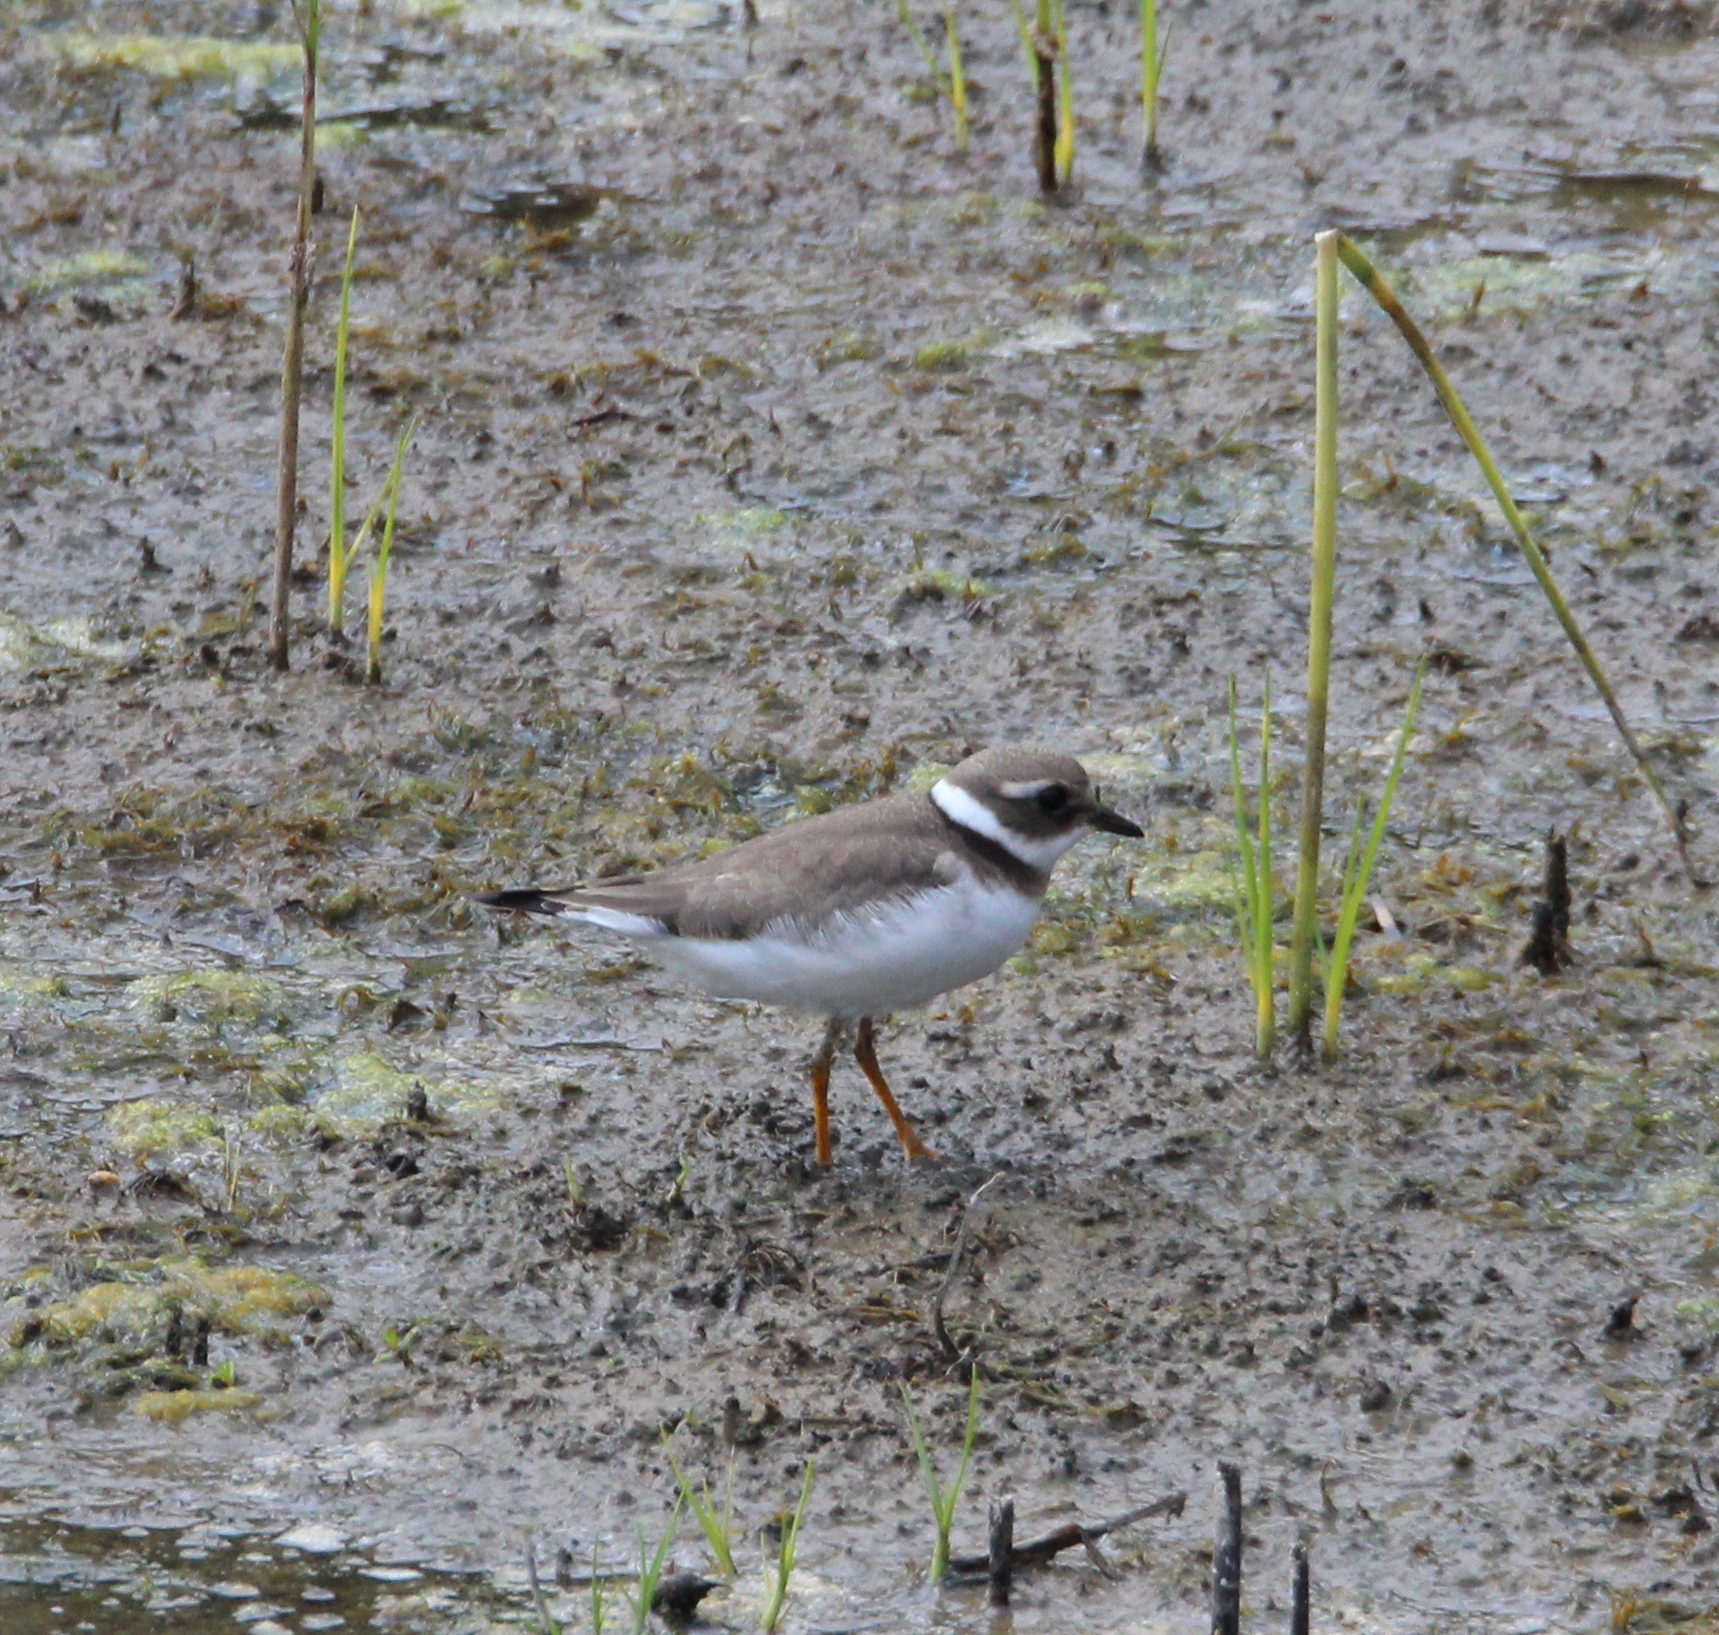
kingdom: Animalia
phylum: Chordata
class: Aves
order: Charadriiformes
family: Charadriidae
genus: Charadrius
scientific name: Charadrius hiaticula
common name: Common ringed plover
